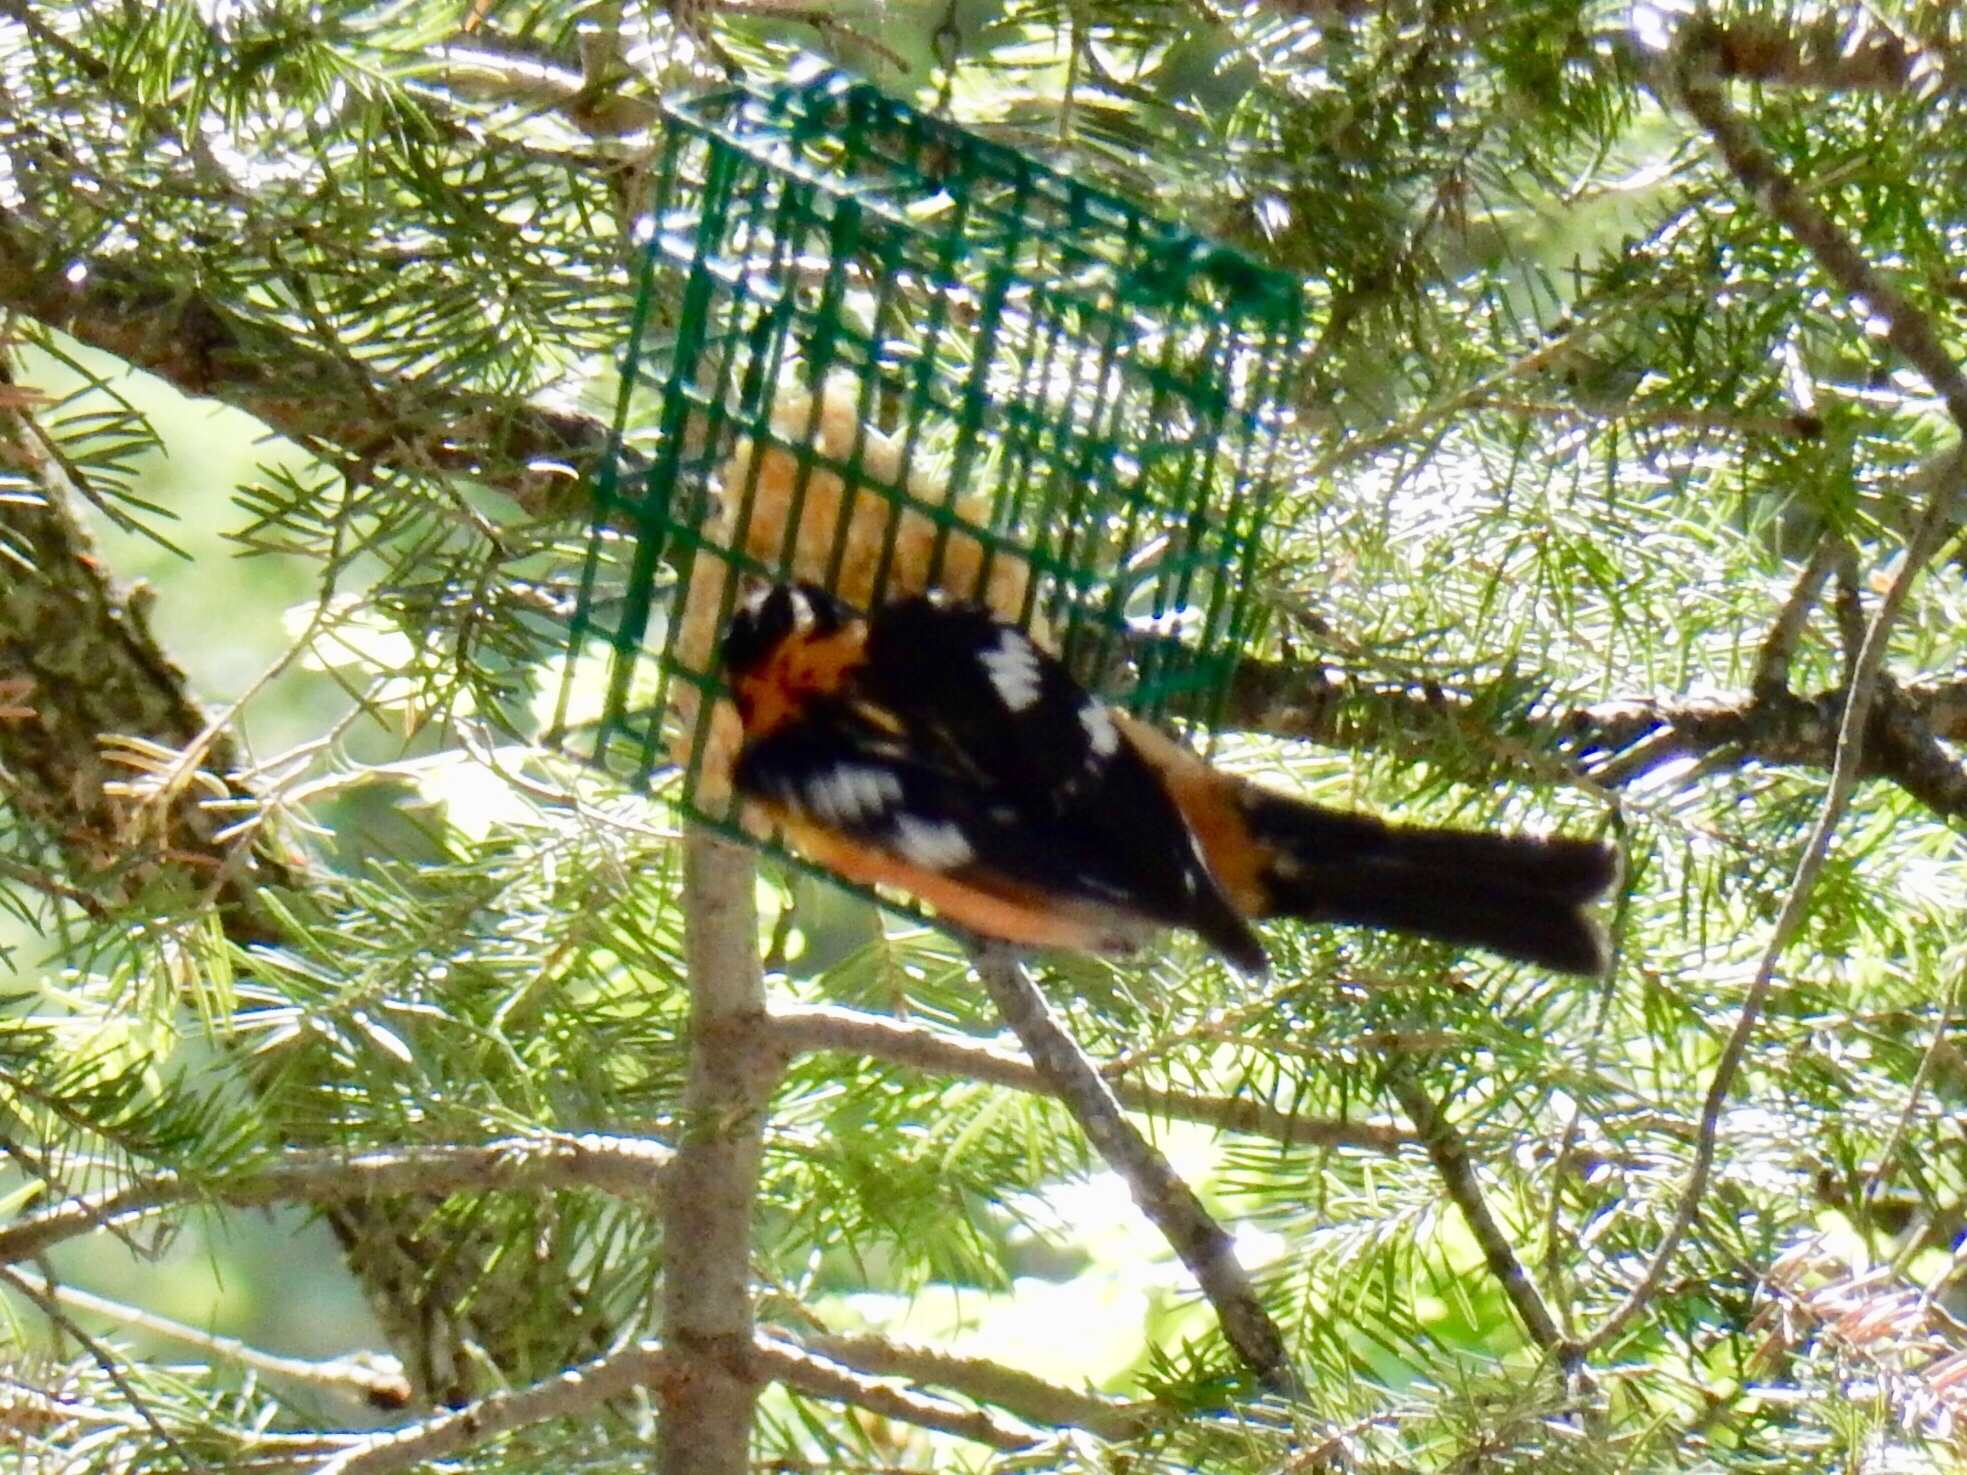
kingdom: Animalia
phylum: Chordata
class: Aves
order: Passeriformes
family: Cardinalidae
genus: Pheucticus
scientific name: Pheucticus melanocephalus
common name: Black-headed grosbeak
